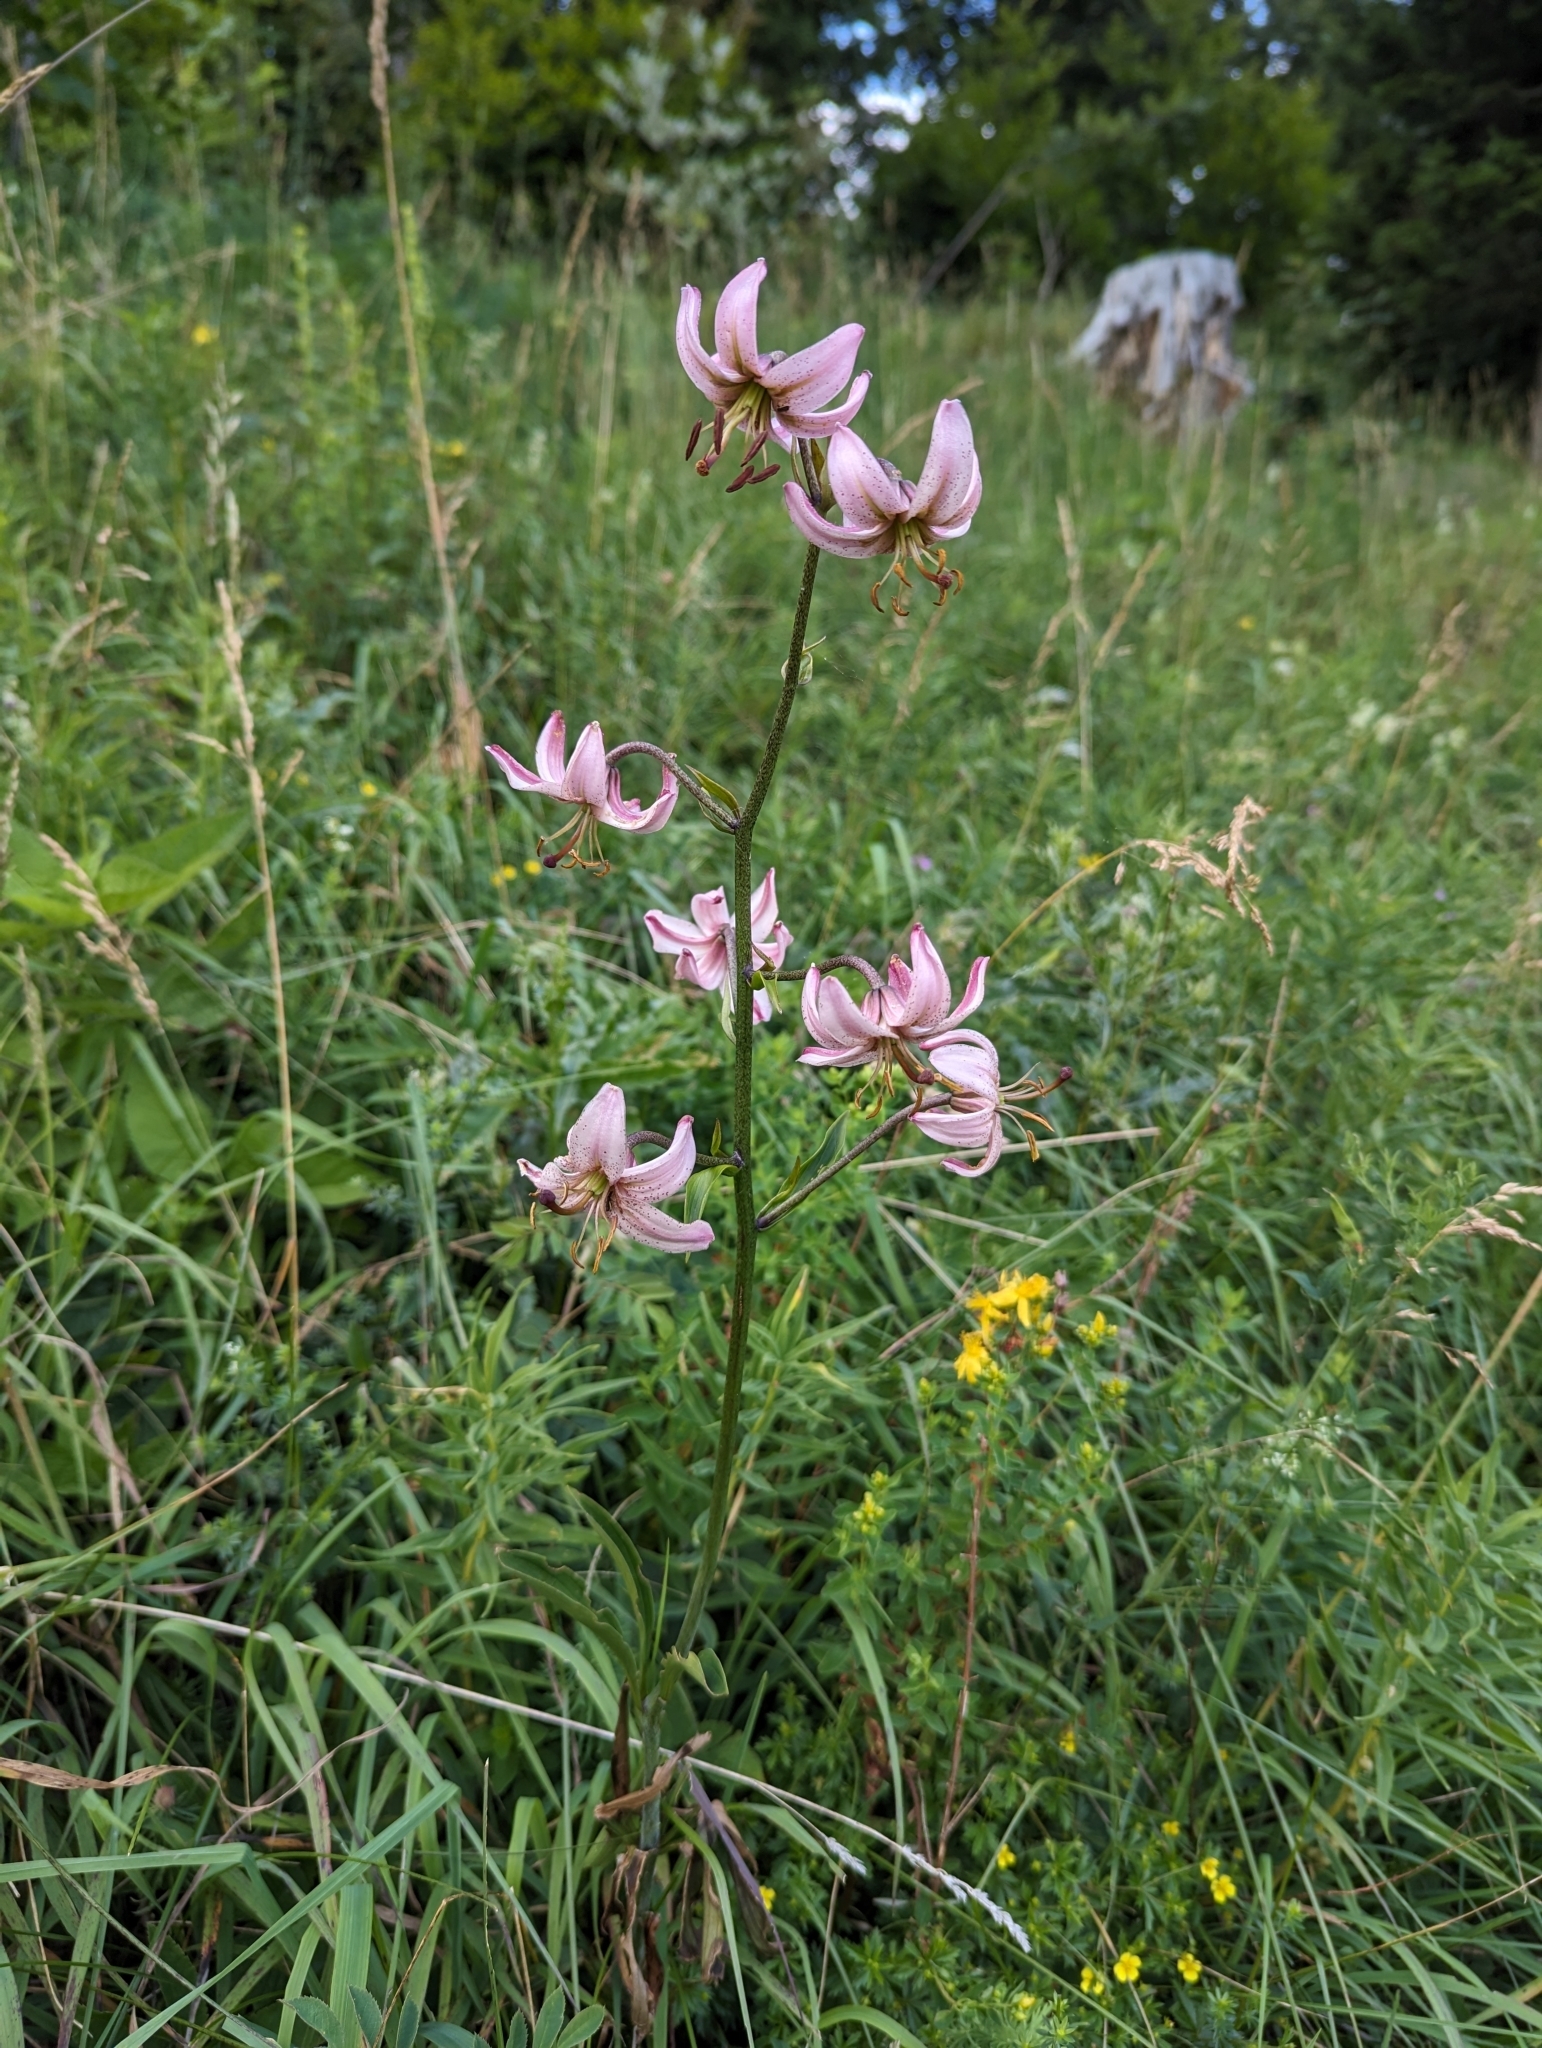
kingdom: Plantae
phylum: Tracheophyta
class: Liliopsida
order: Liliales
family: Liliaceae
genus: Lilium
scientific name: Lilium martagon
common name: Martagon lily
